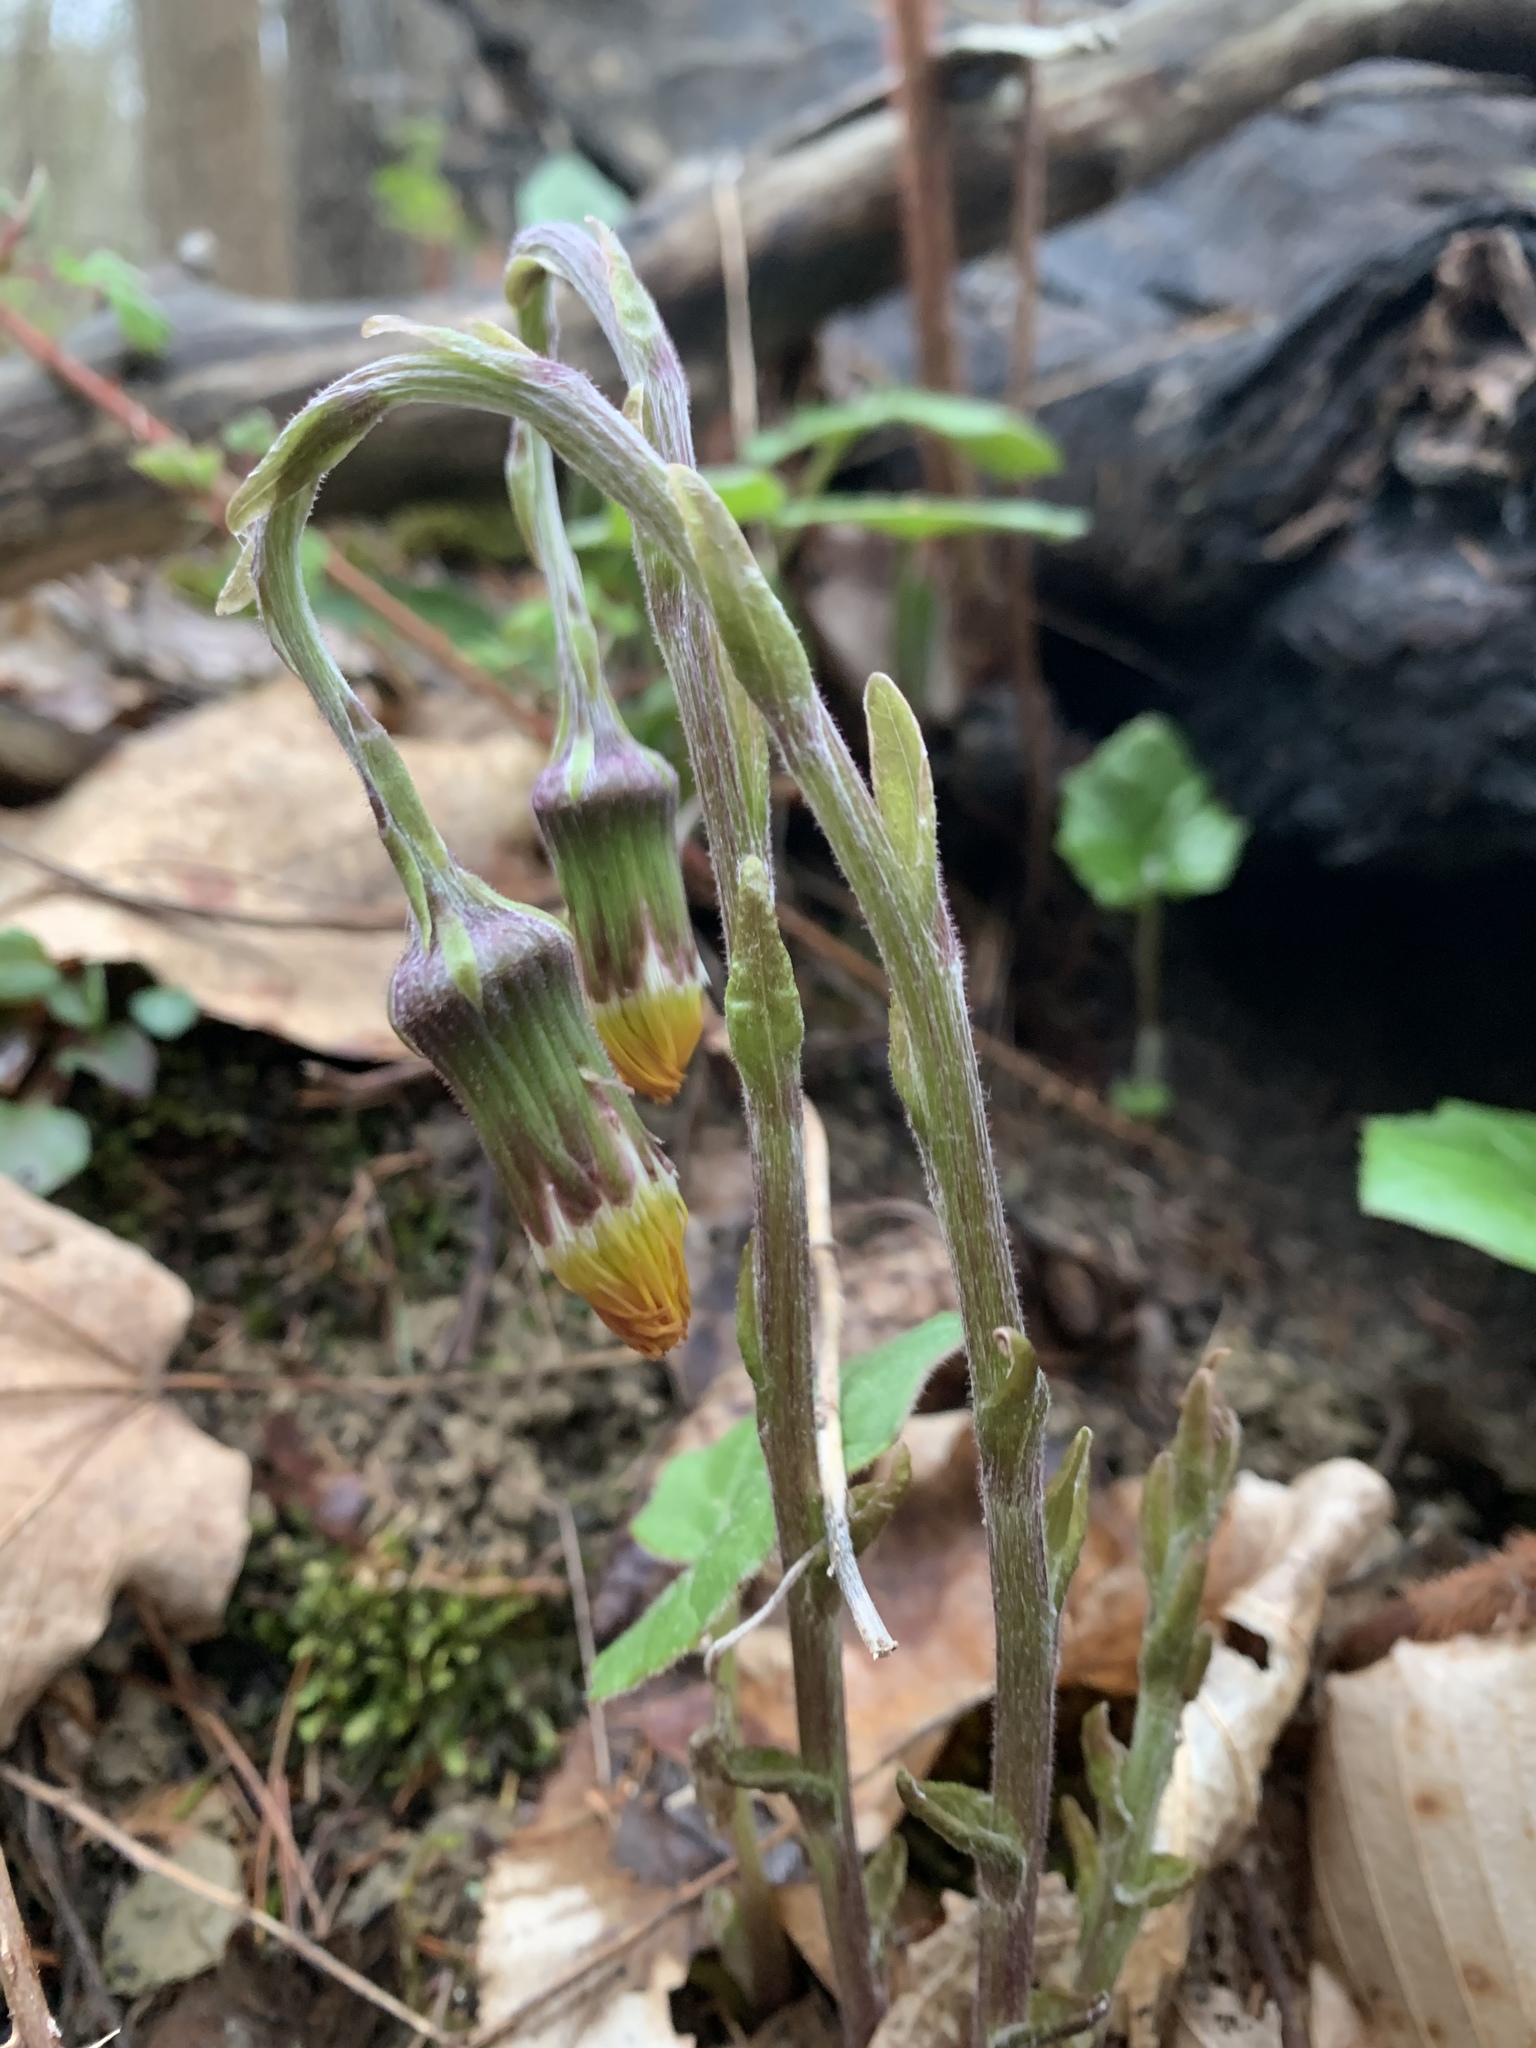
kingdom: Plantae
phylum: Tracheophyta
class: Magnoliopsida
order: Asterales
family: Asteraceae
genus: Tussilago
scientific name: Tussilago farfara
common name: Coltsfoot
